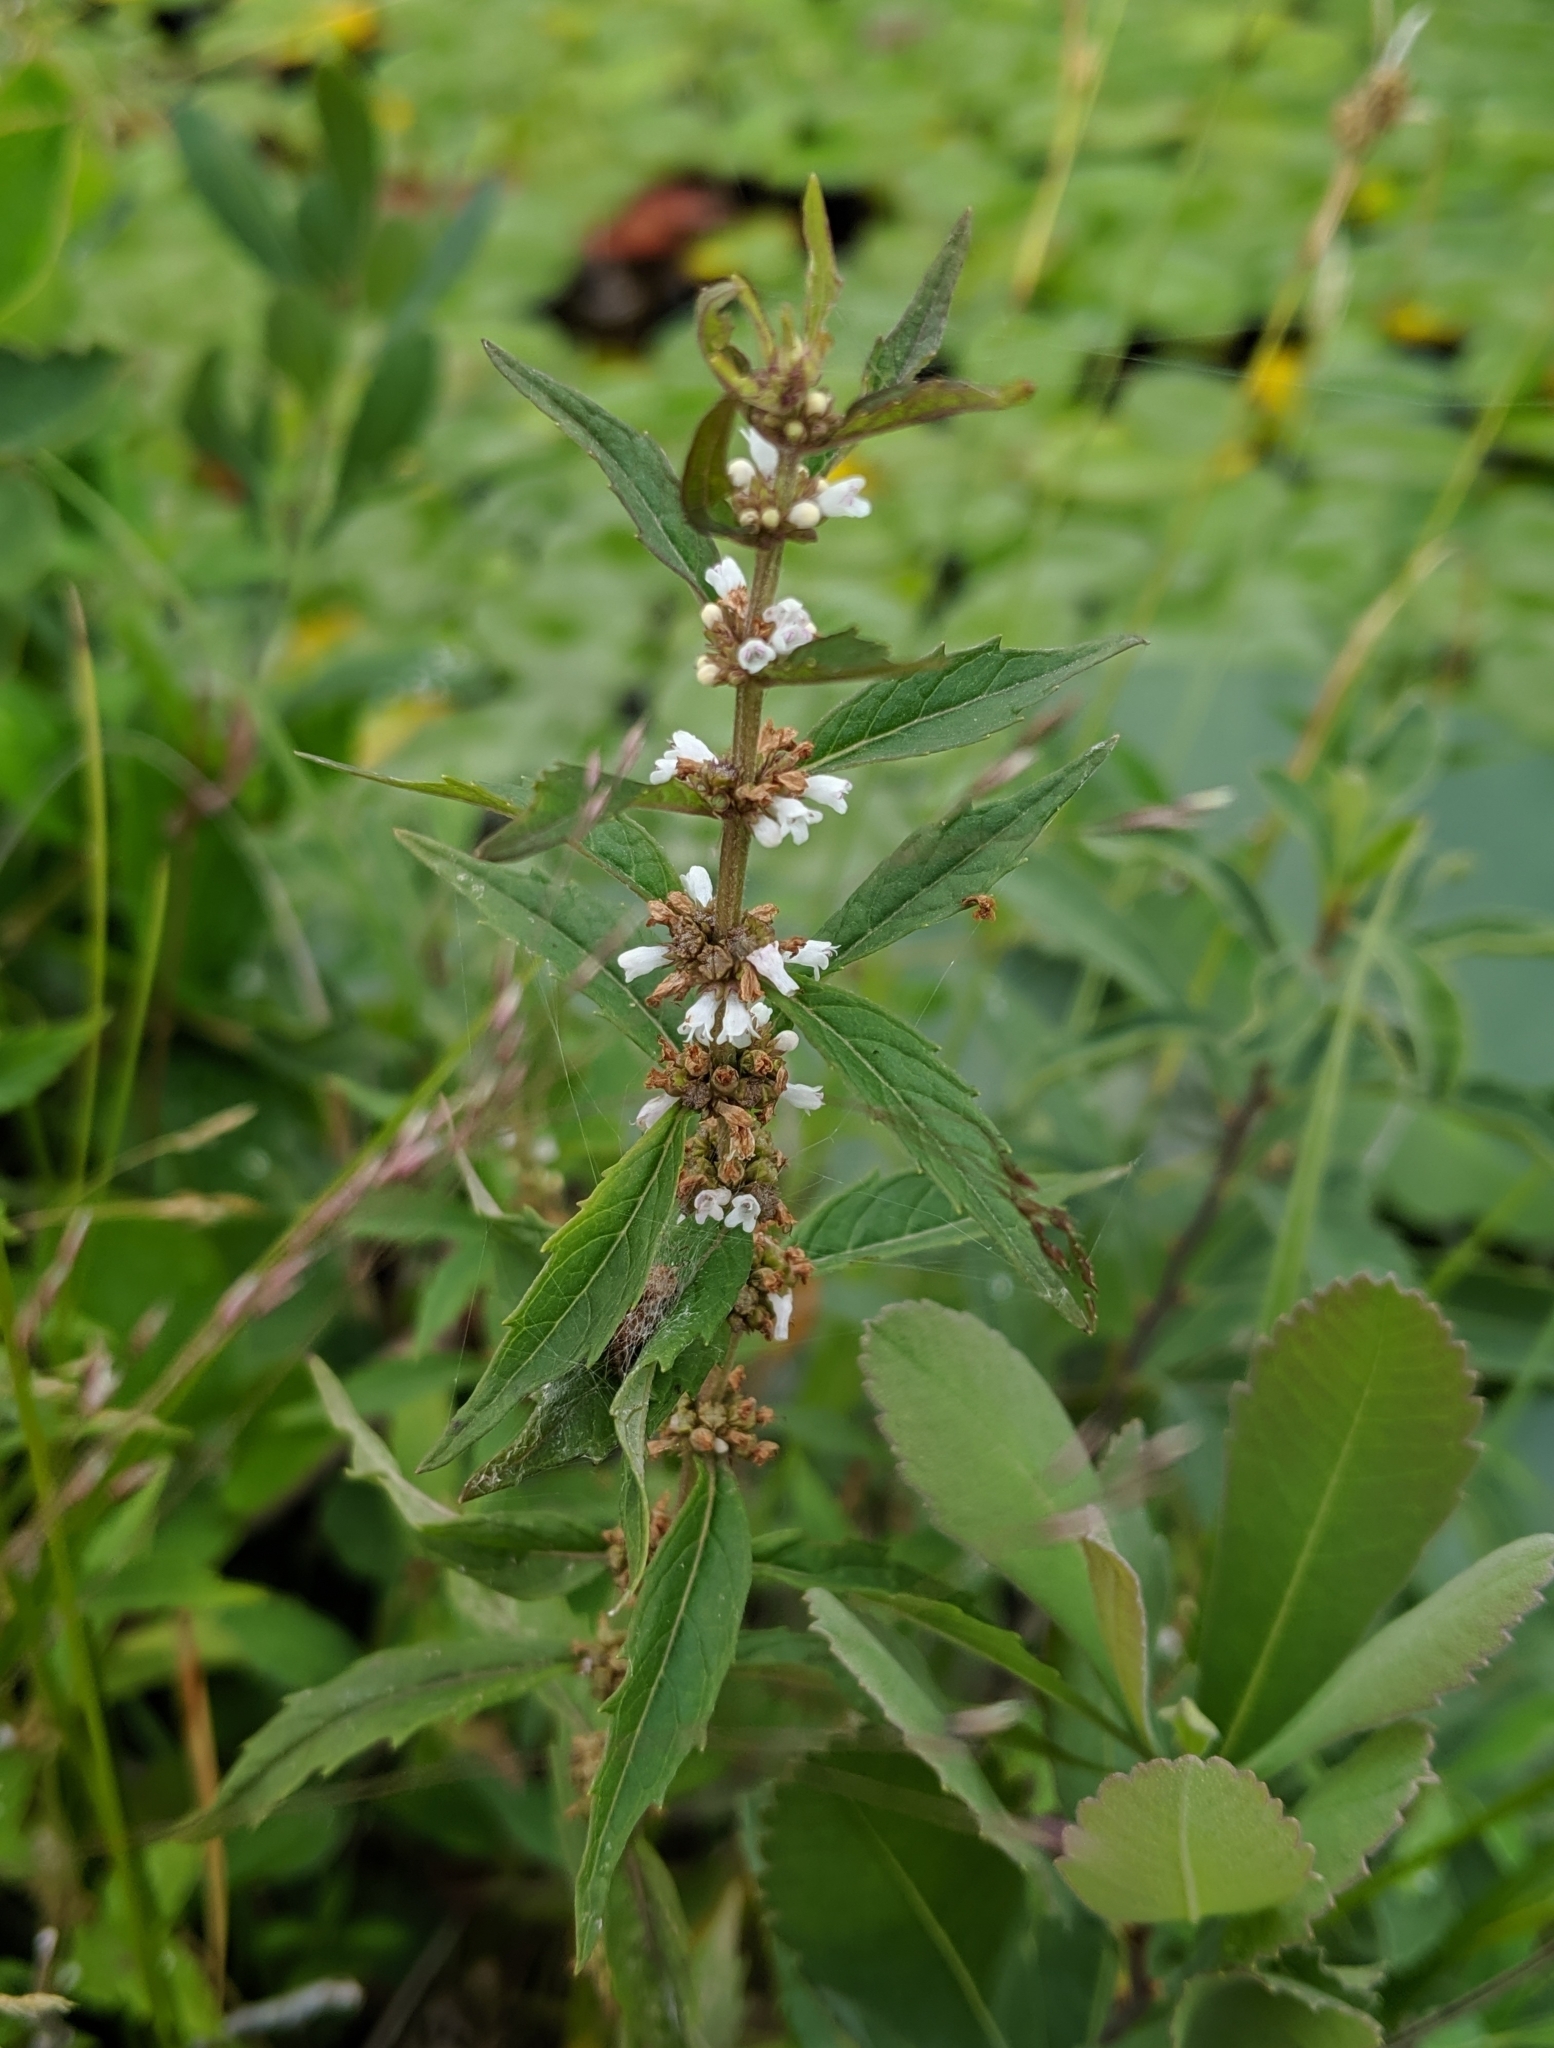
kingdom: Plantae
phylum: Tracheophyta
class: Magnoliopsida
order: Lamiales
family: Lamiaceae
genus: Lycopus
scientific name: Lycopus uniflorus
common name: Northern bugleweed
